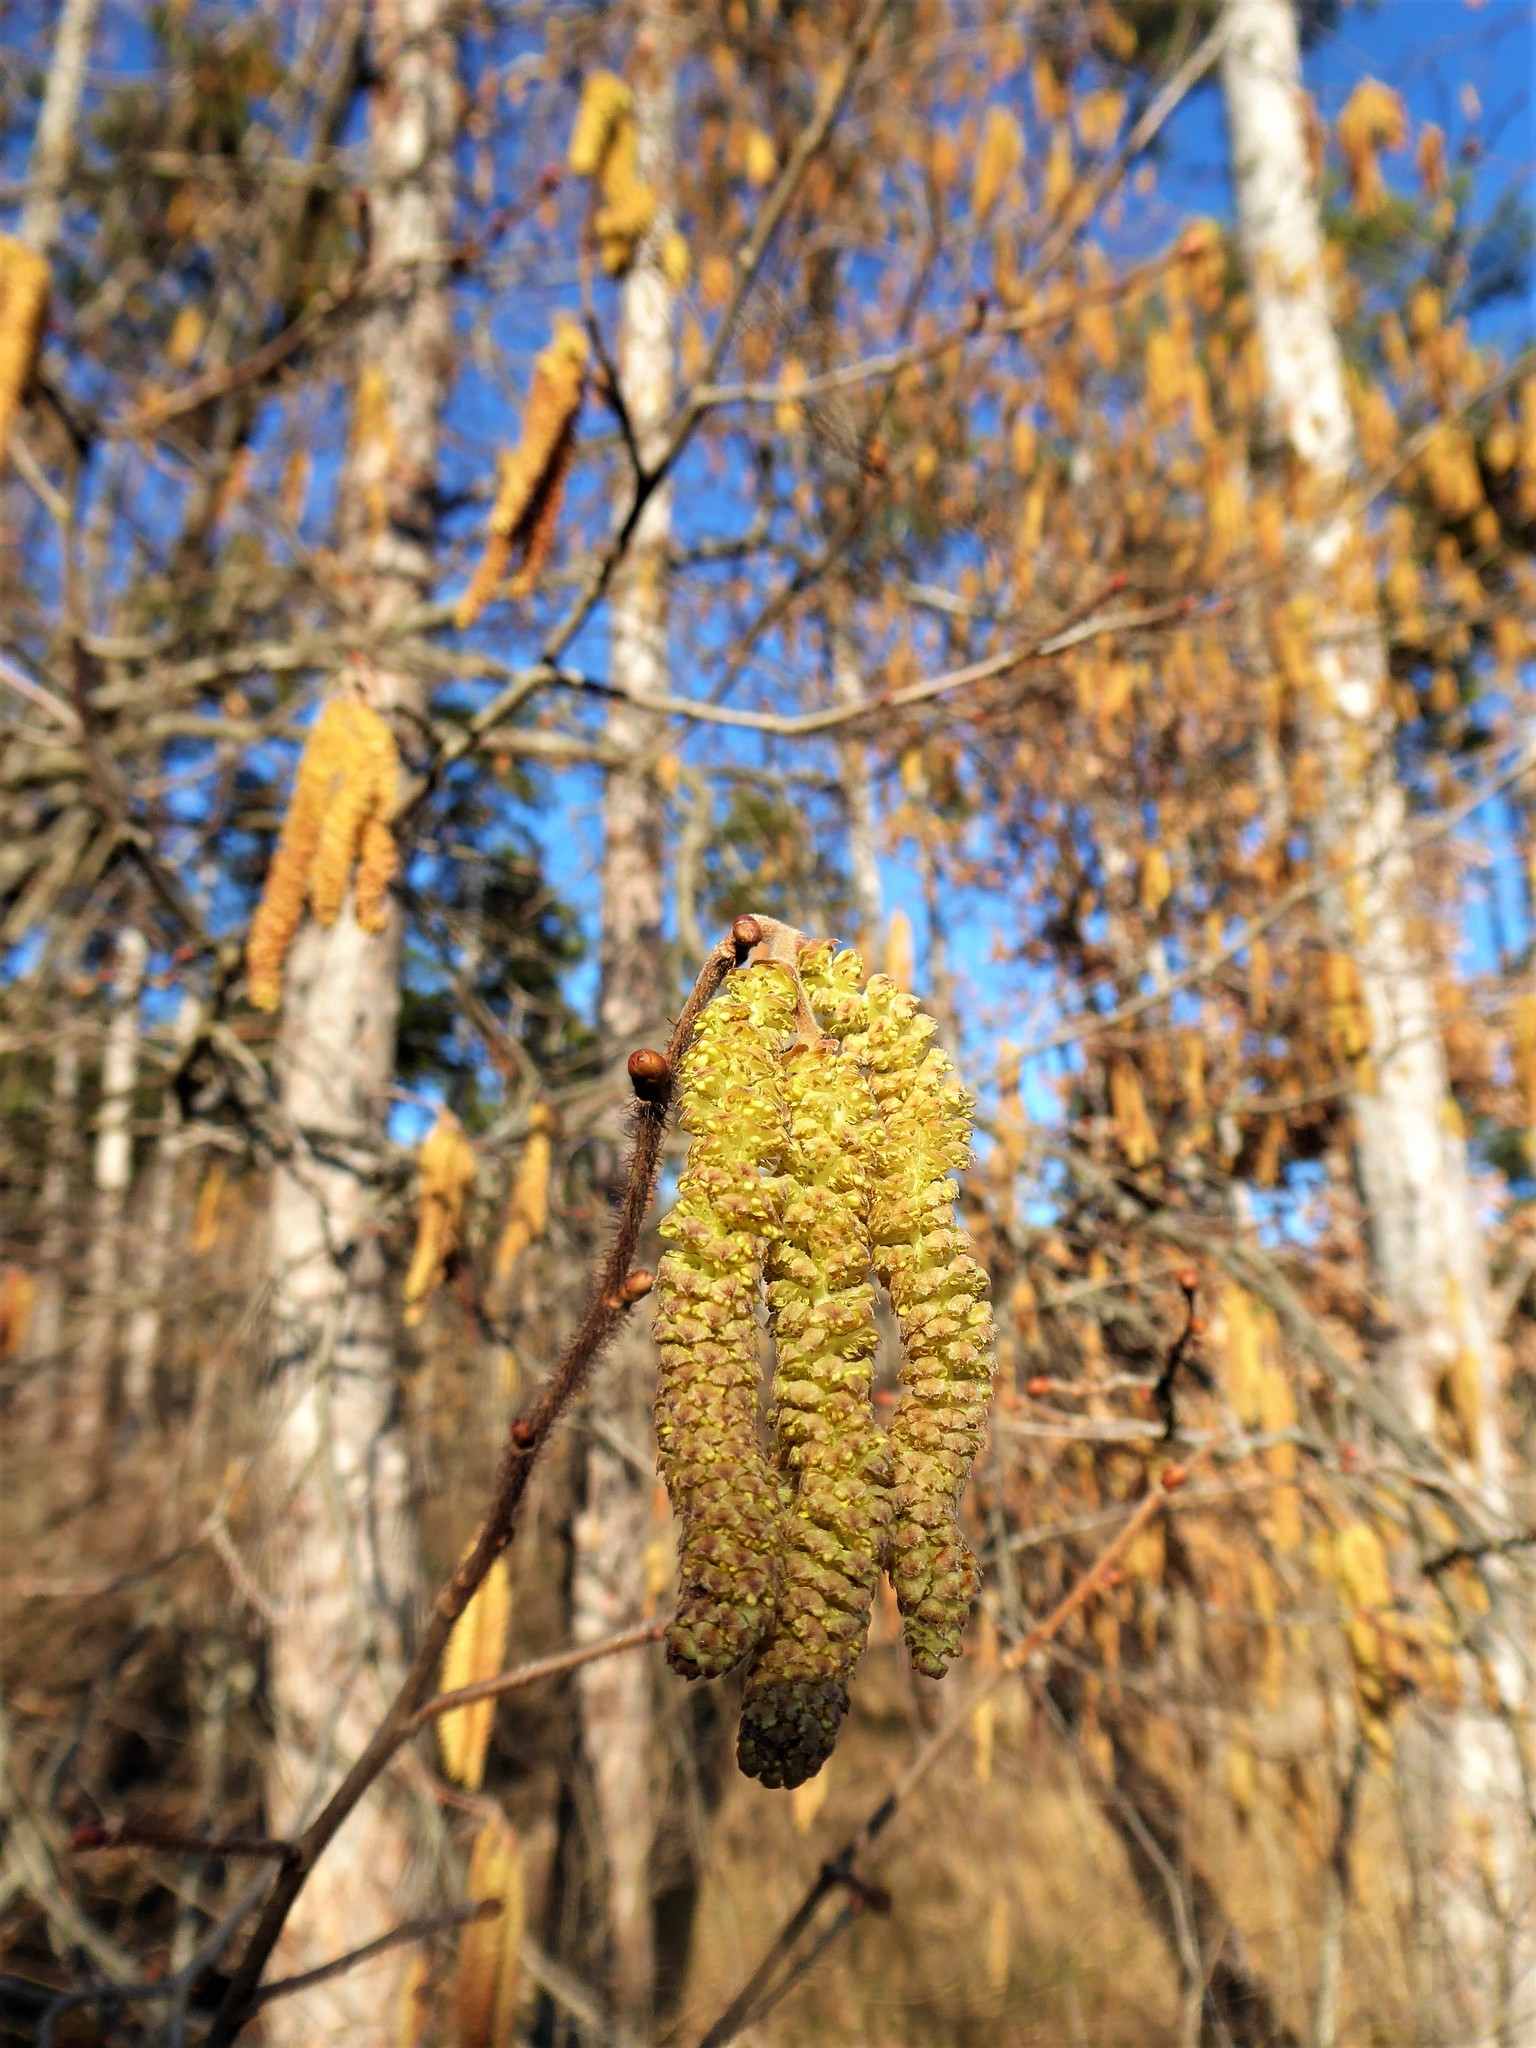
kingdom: Plantae
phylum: Tracheophyta
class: Magnoliopsida
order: Fagales
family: Betulaceae
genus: Corylus
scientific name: Corylus avellana
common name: European hazel
